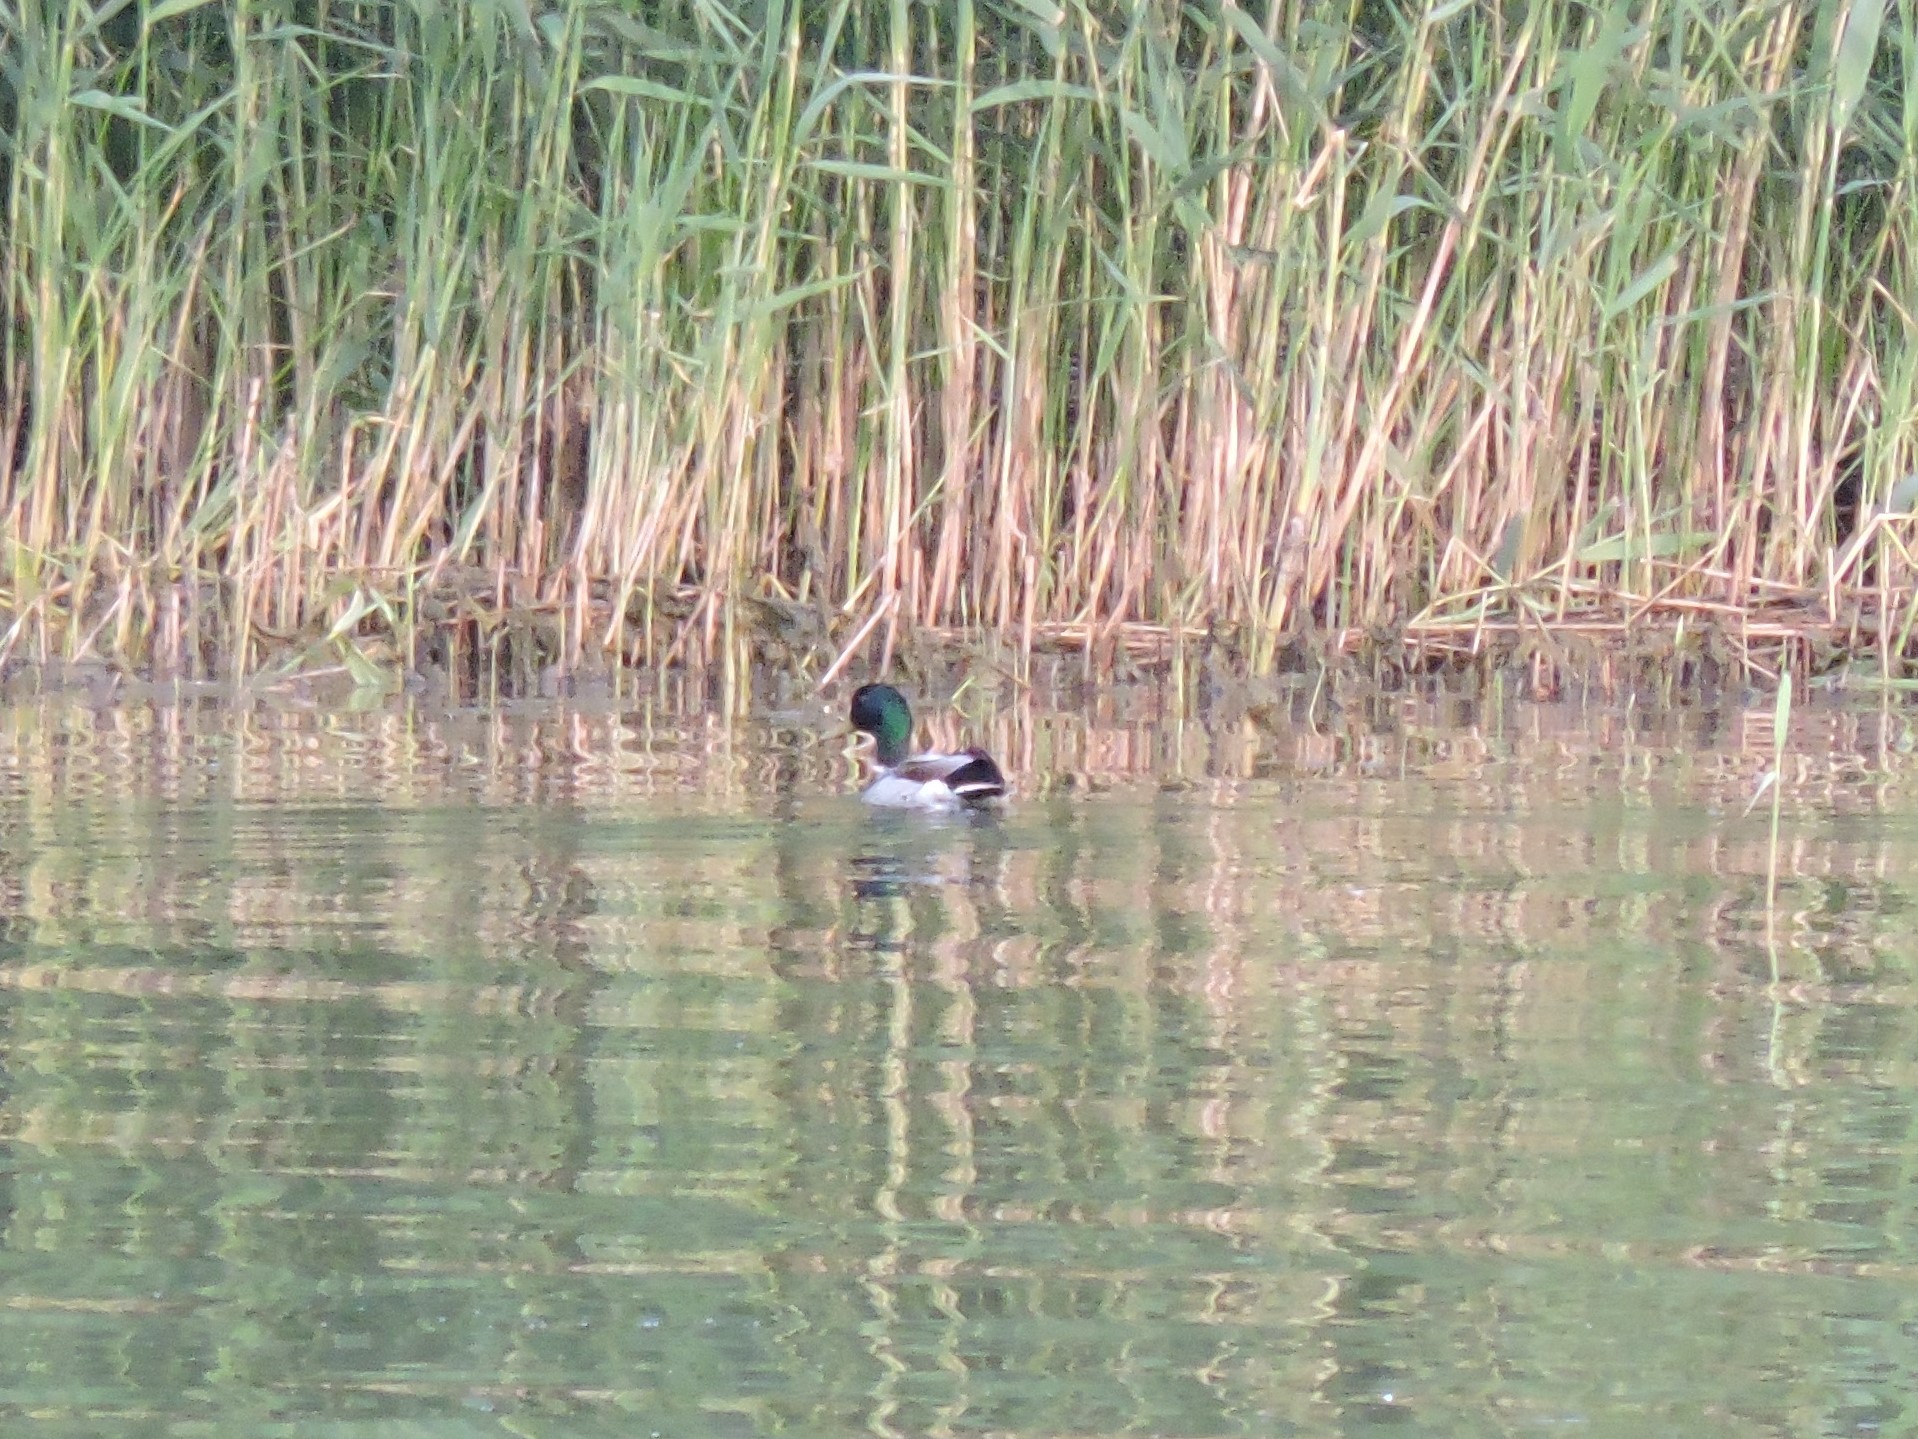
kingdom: Animalia
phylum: Chordata
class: Aves
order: Anseriformes
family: Anatidae
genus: Anas
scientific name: Anas platyrhynchos
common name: Mallard
